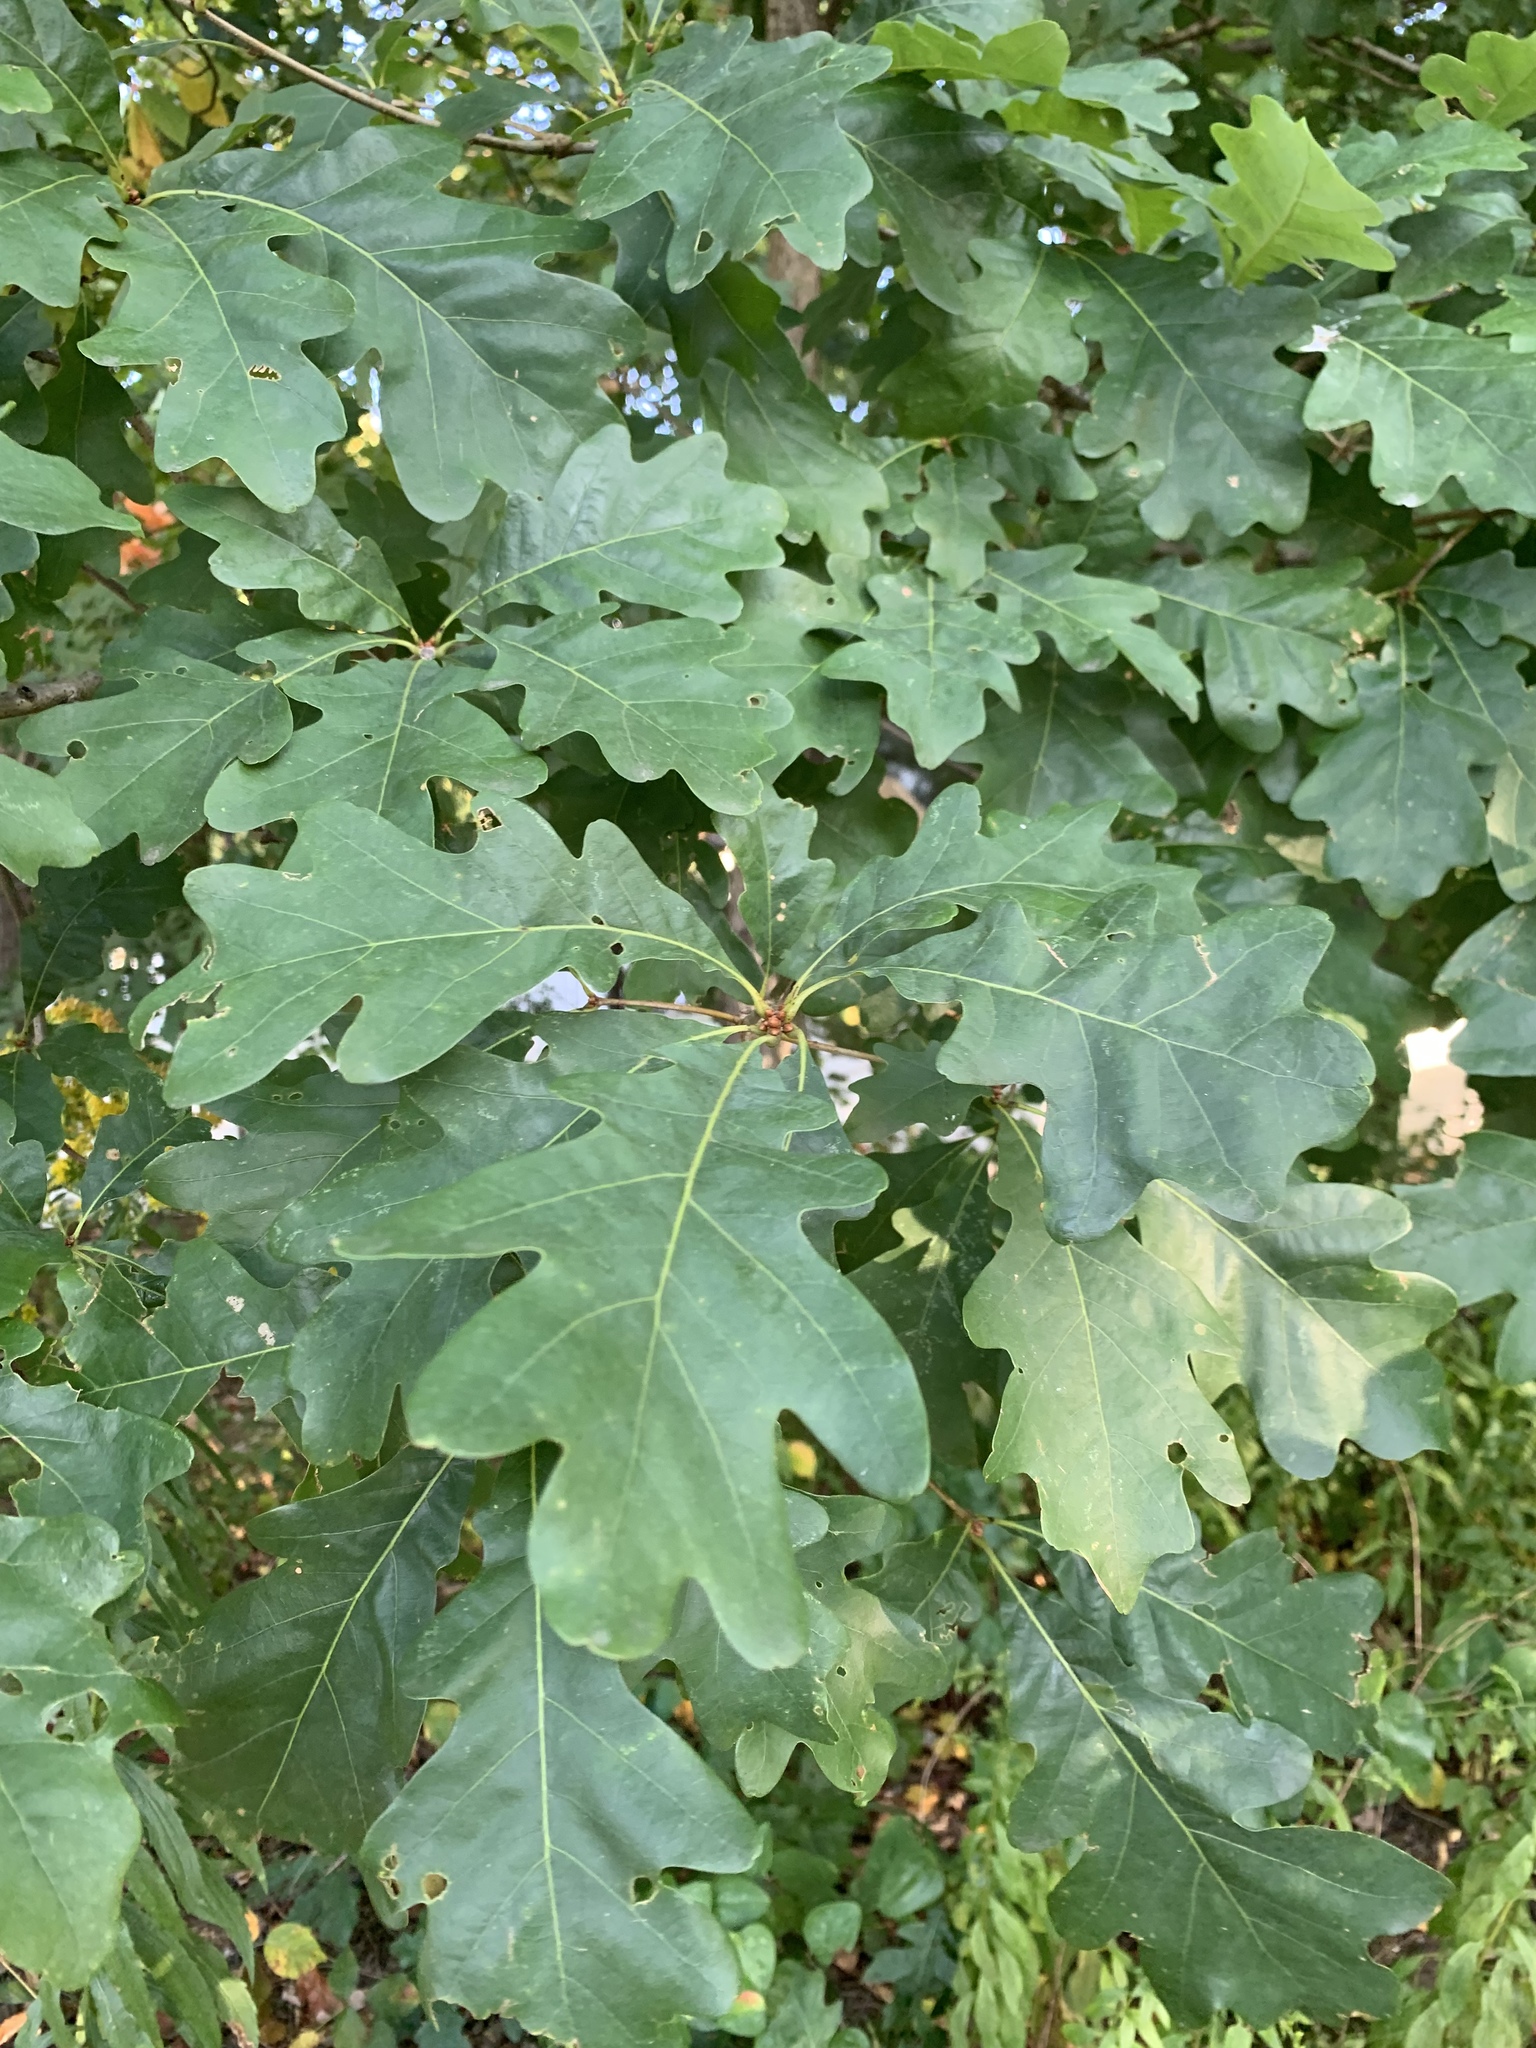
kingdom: Plantae
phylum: Tracheophyta
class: Magnoliopsida
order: Fagales
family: Fagaceae
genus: Quercus
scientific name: Quercus alba
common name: White oak
